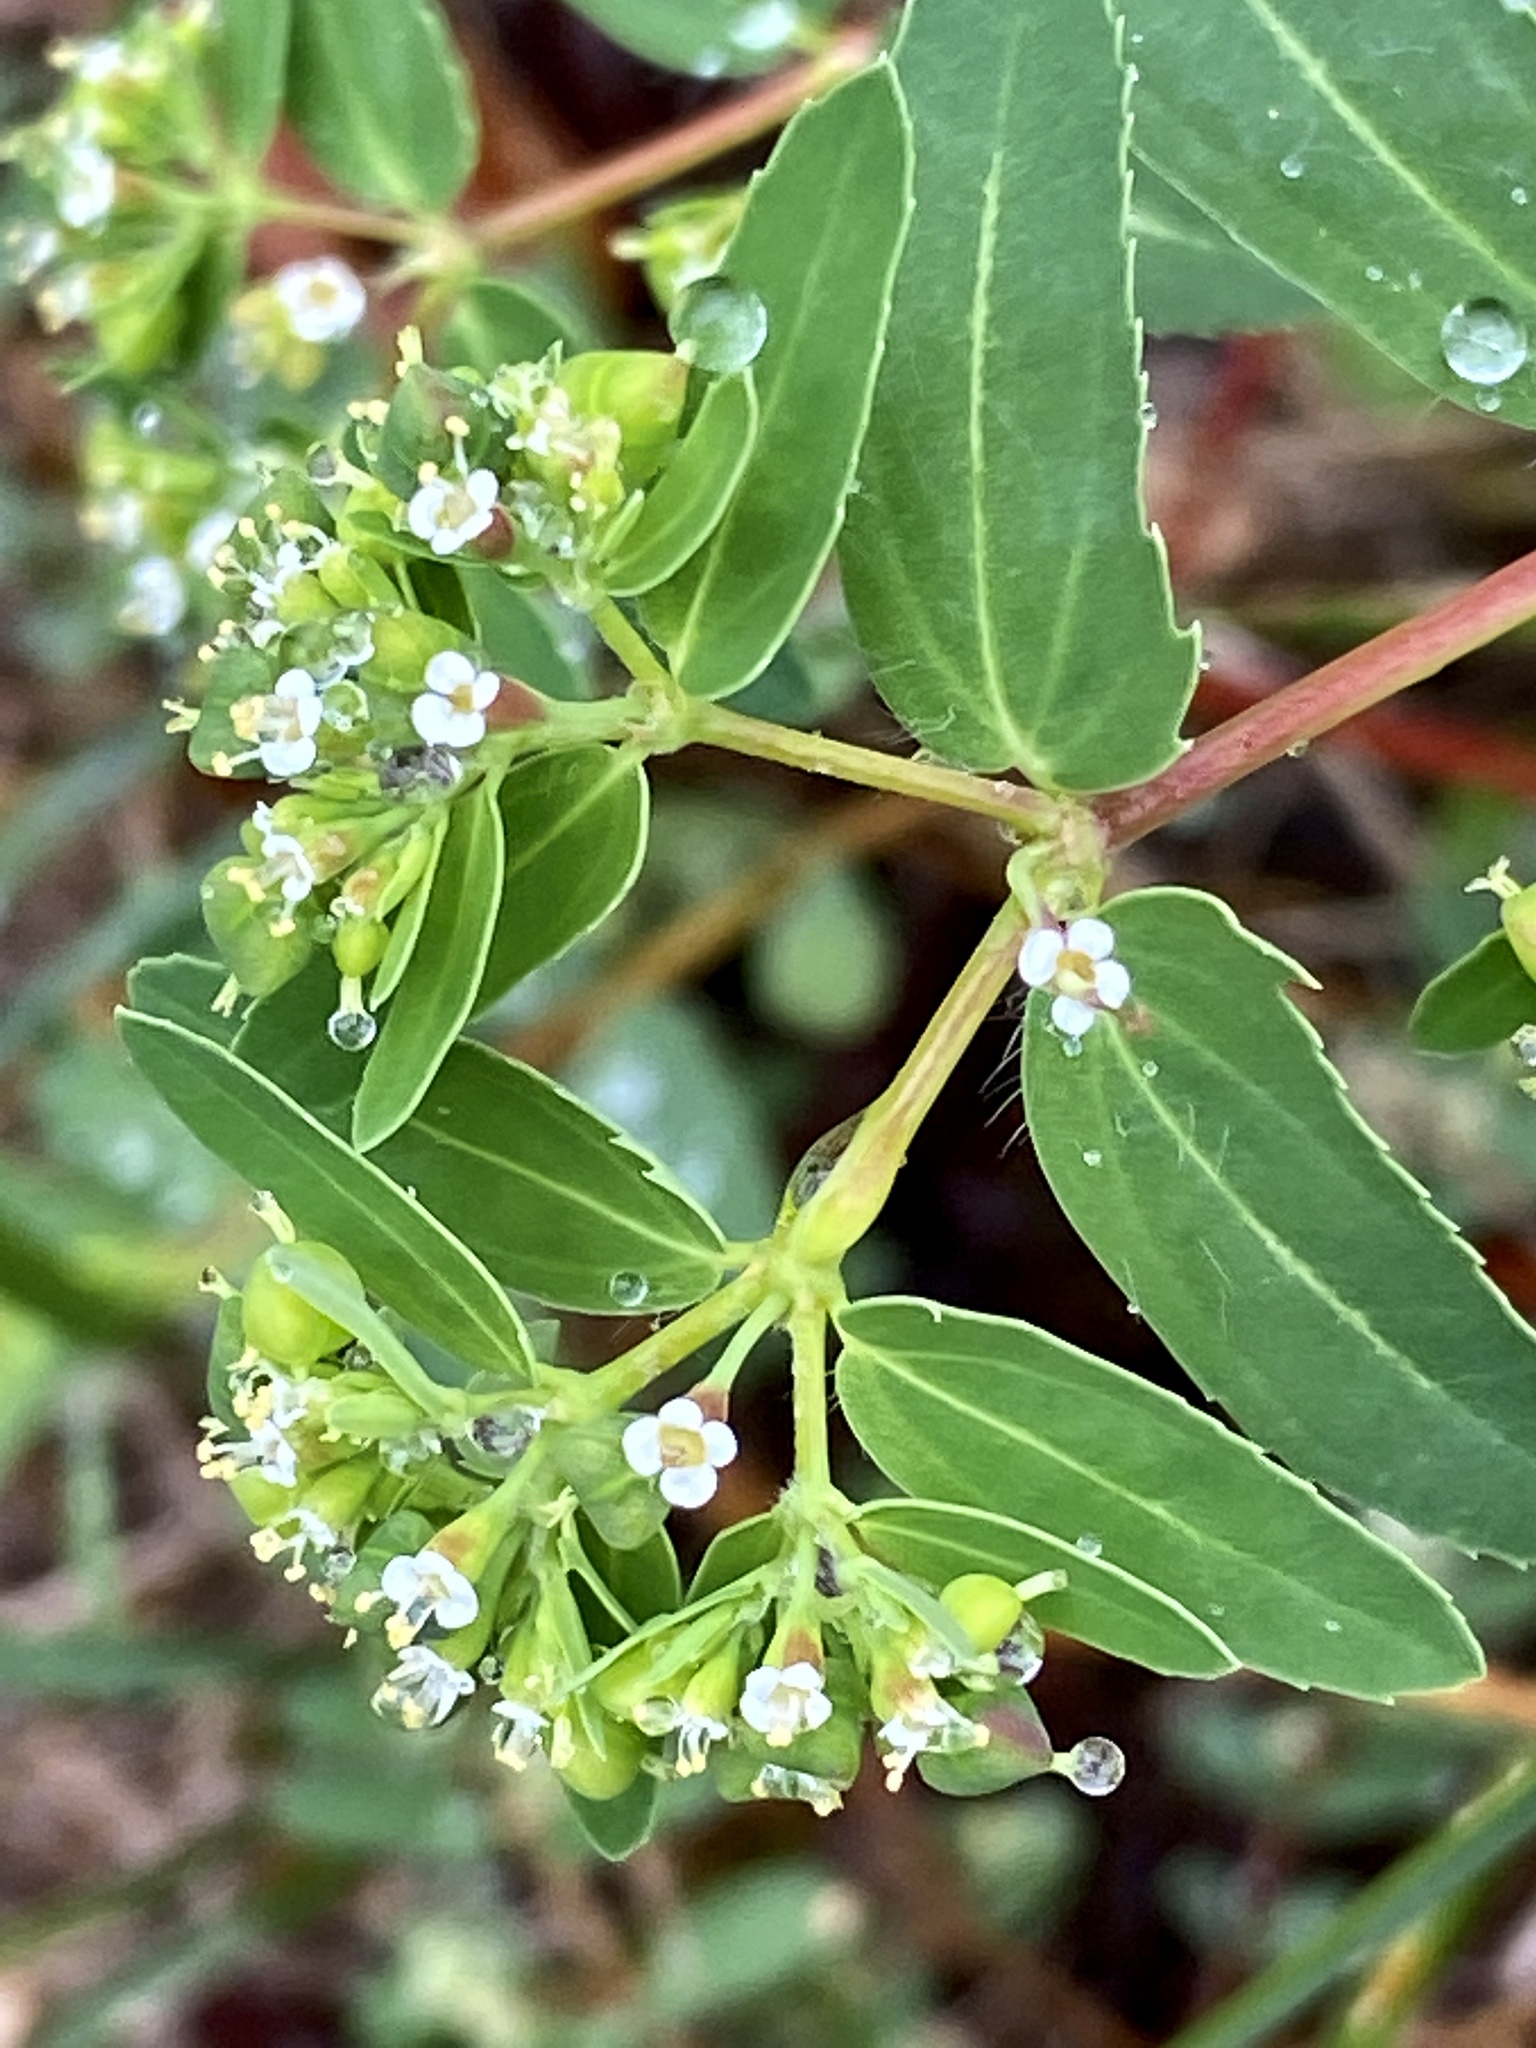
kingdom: Plantae
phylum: Tracheophyta
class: Magnoliopsida
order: Malpighiales
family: Euphorbiaceae
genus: Euphorbia
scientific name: Euphorbia nutans
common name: Eyebane
